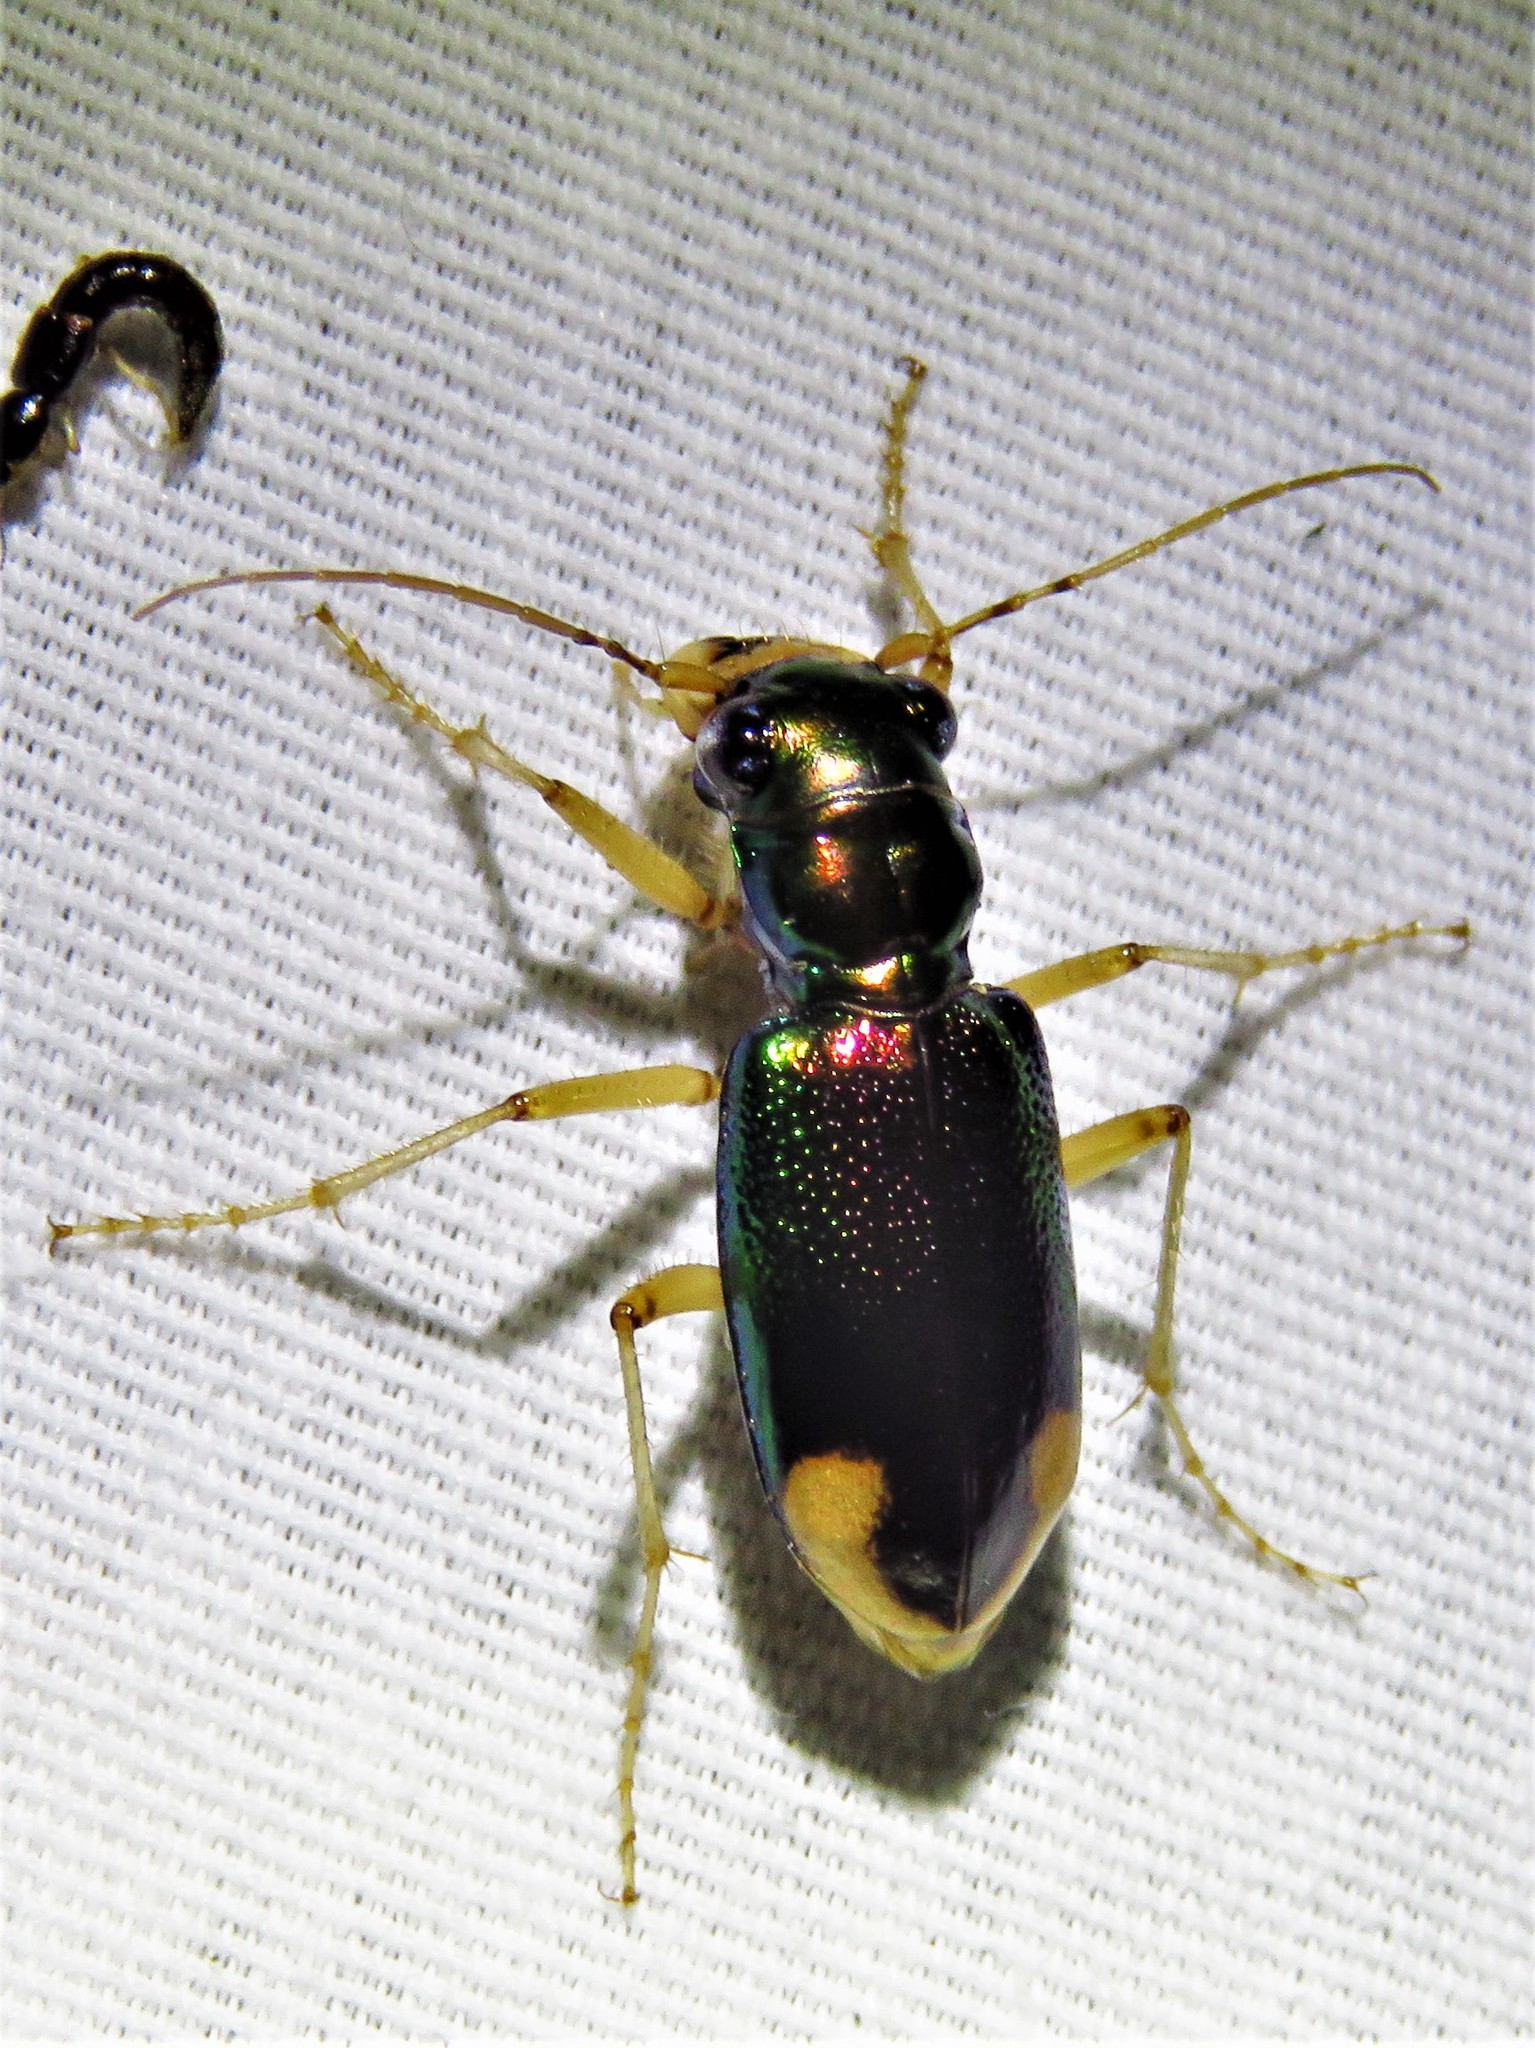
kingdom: Animalia
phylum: Arthropoda
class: Insecta
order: Coleoptera
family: Carabidae
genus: Tetracha
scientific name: Tetracha carolina
